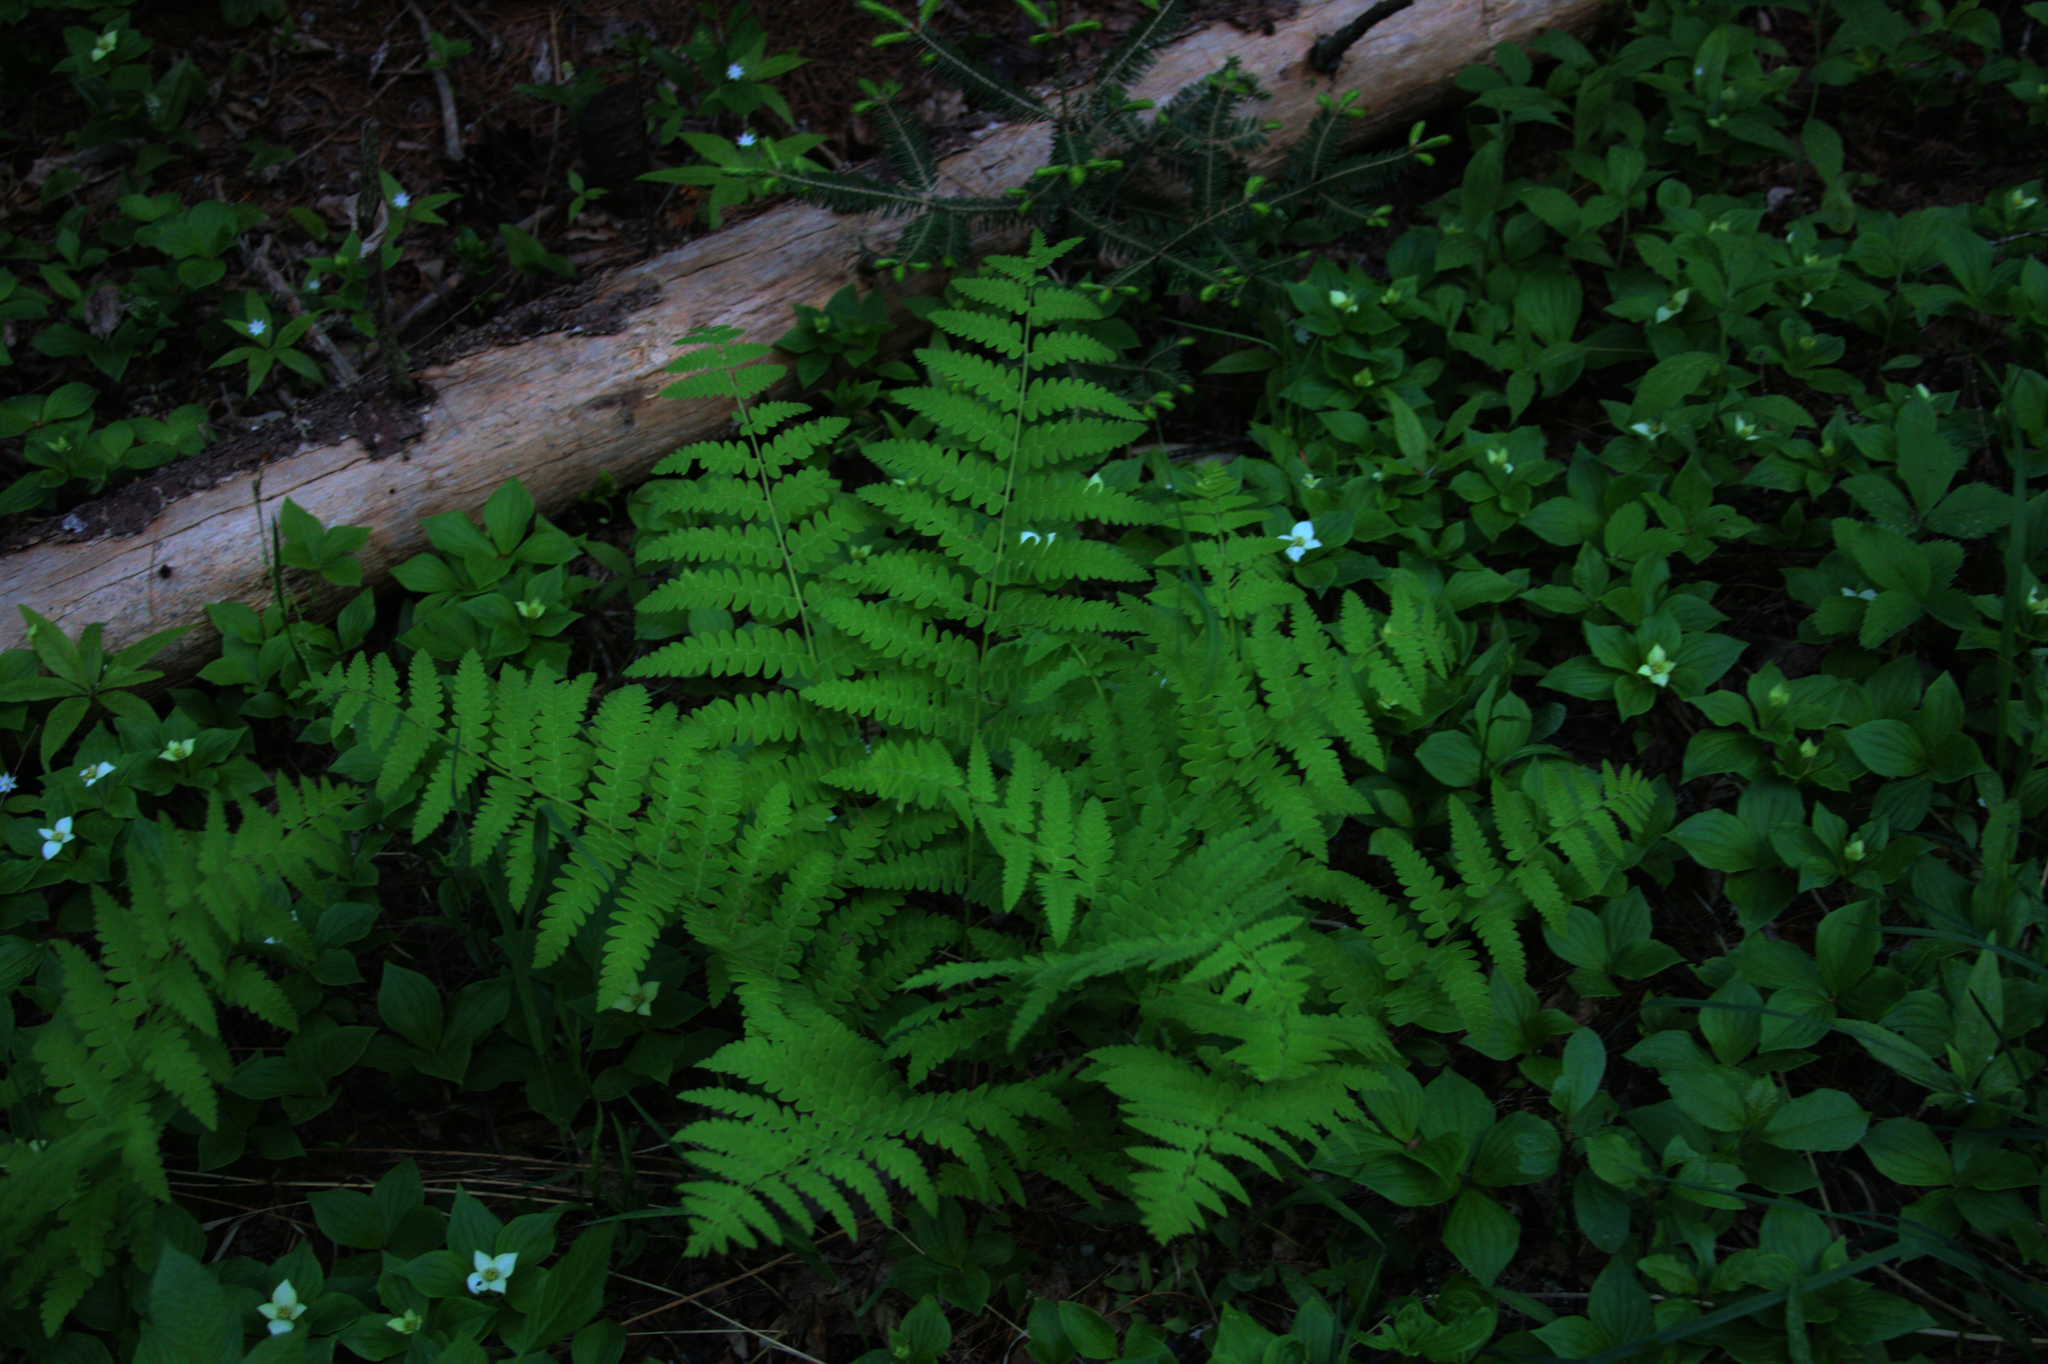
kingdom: Plantae
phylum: Tracheophyta
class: Polypodiopsida
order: Osmundales
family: Osmundaceae
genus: Claytosmunda
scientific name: Claytosmunda claytoniana
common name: Clayton's fern
